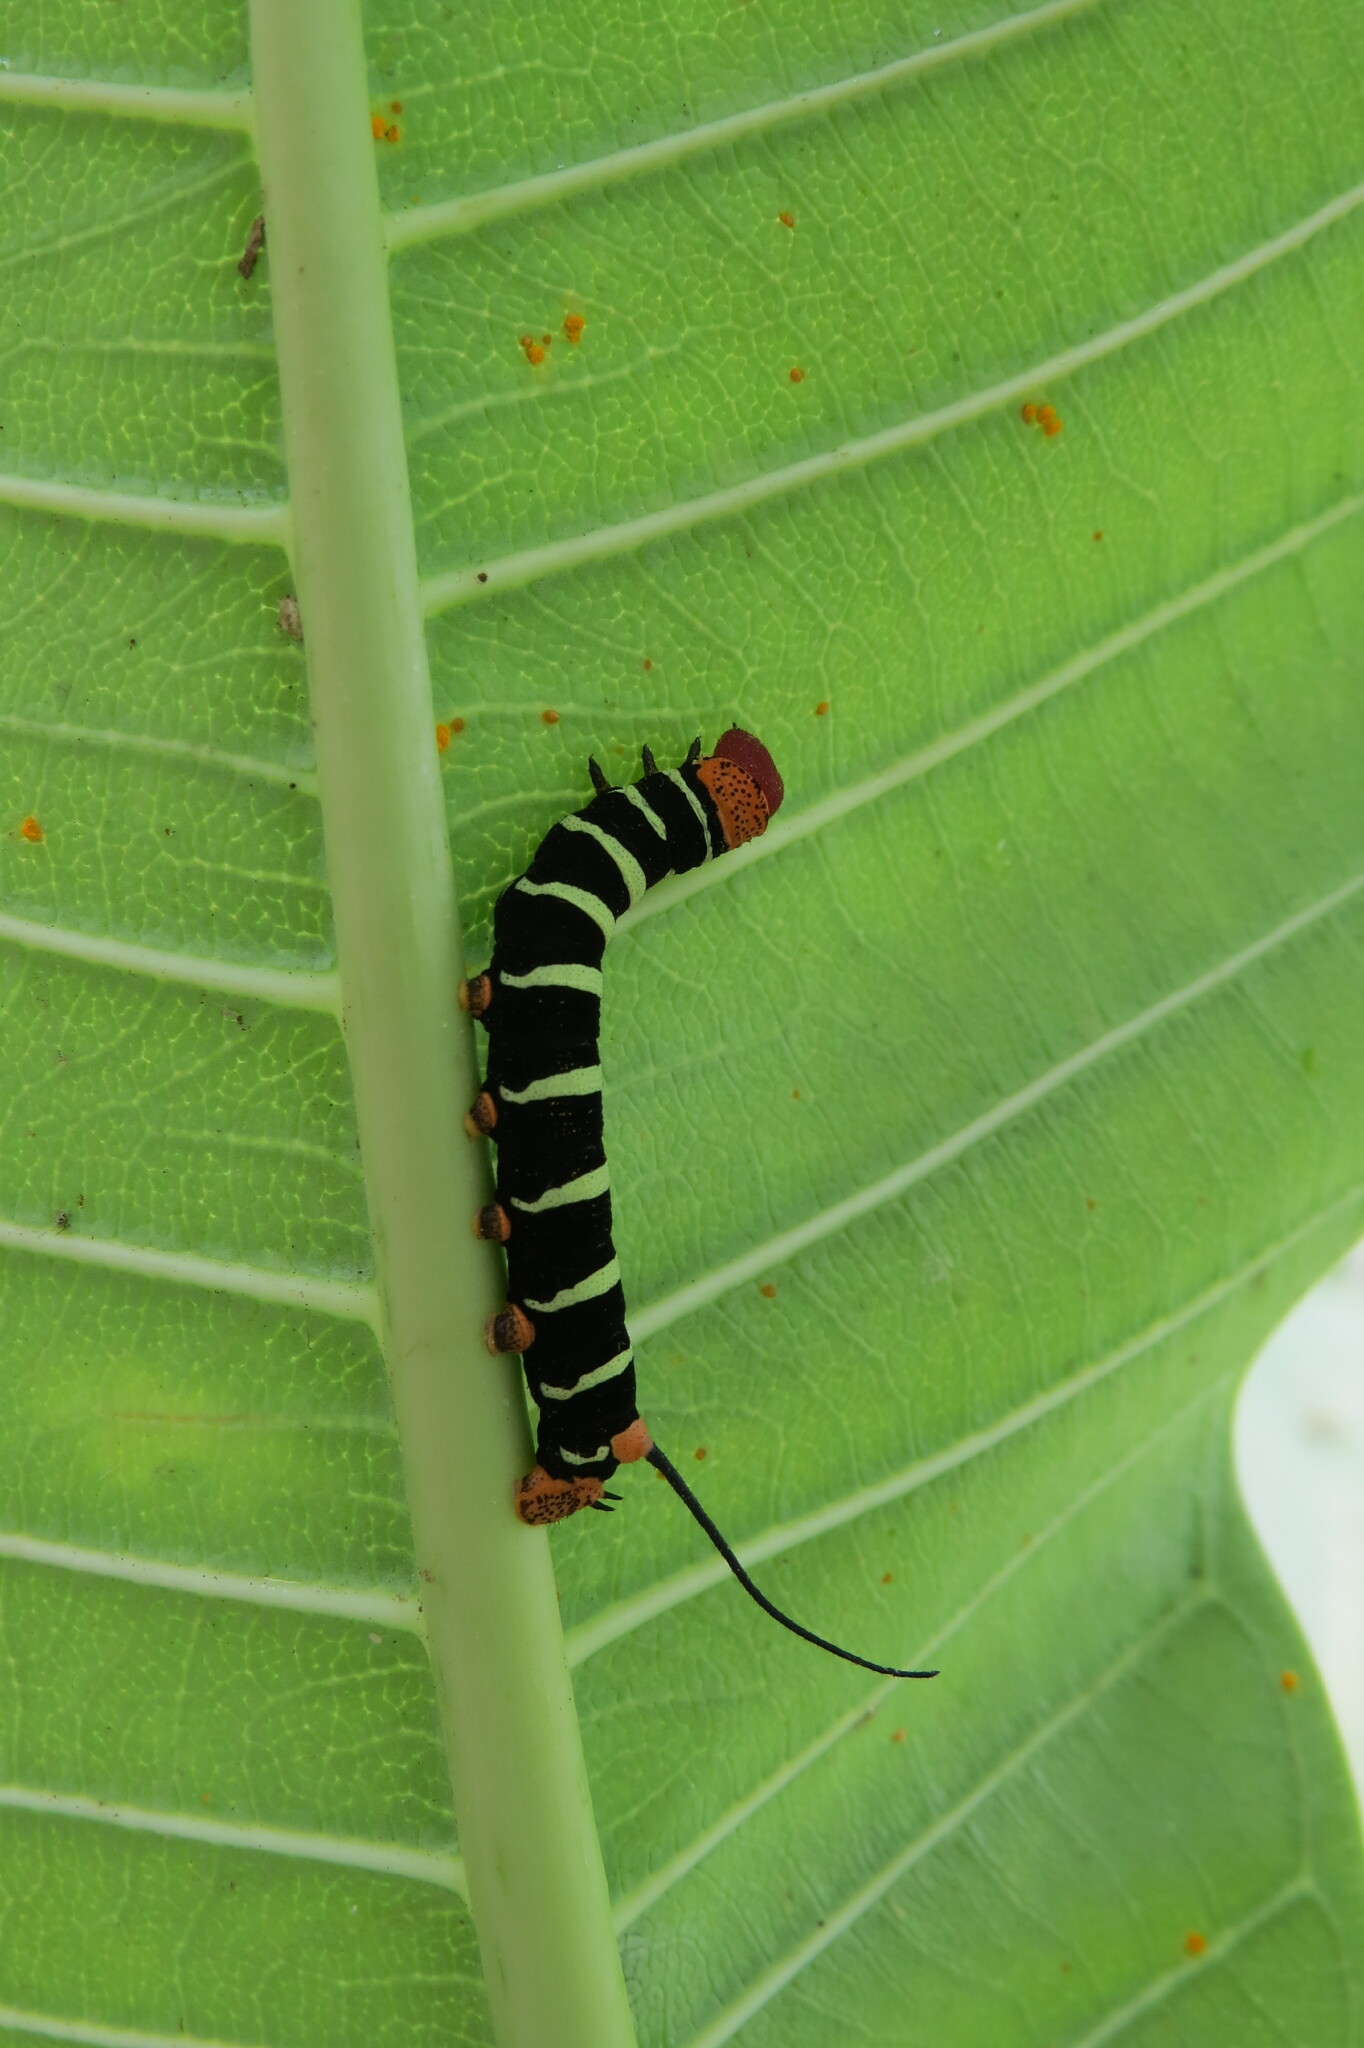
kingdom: Animalia
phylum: Arthropoda
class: Insecta
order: Lepidoptera
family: Sphingidae
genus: Pseudosphinx
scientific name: Pseudosphinx tetrio
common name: Tetrio sphinx
